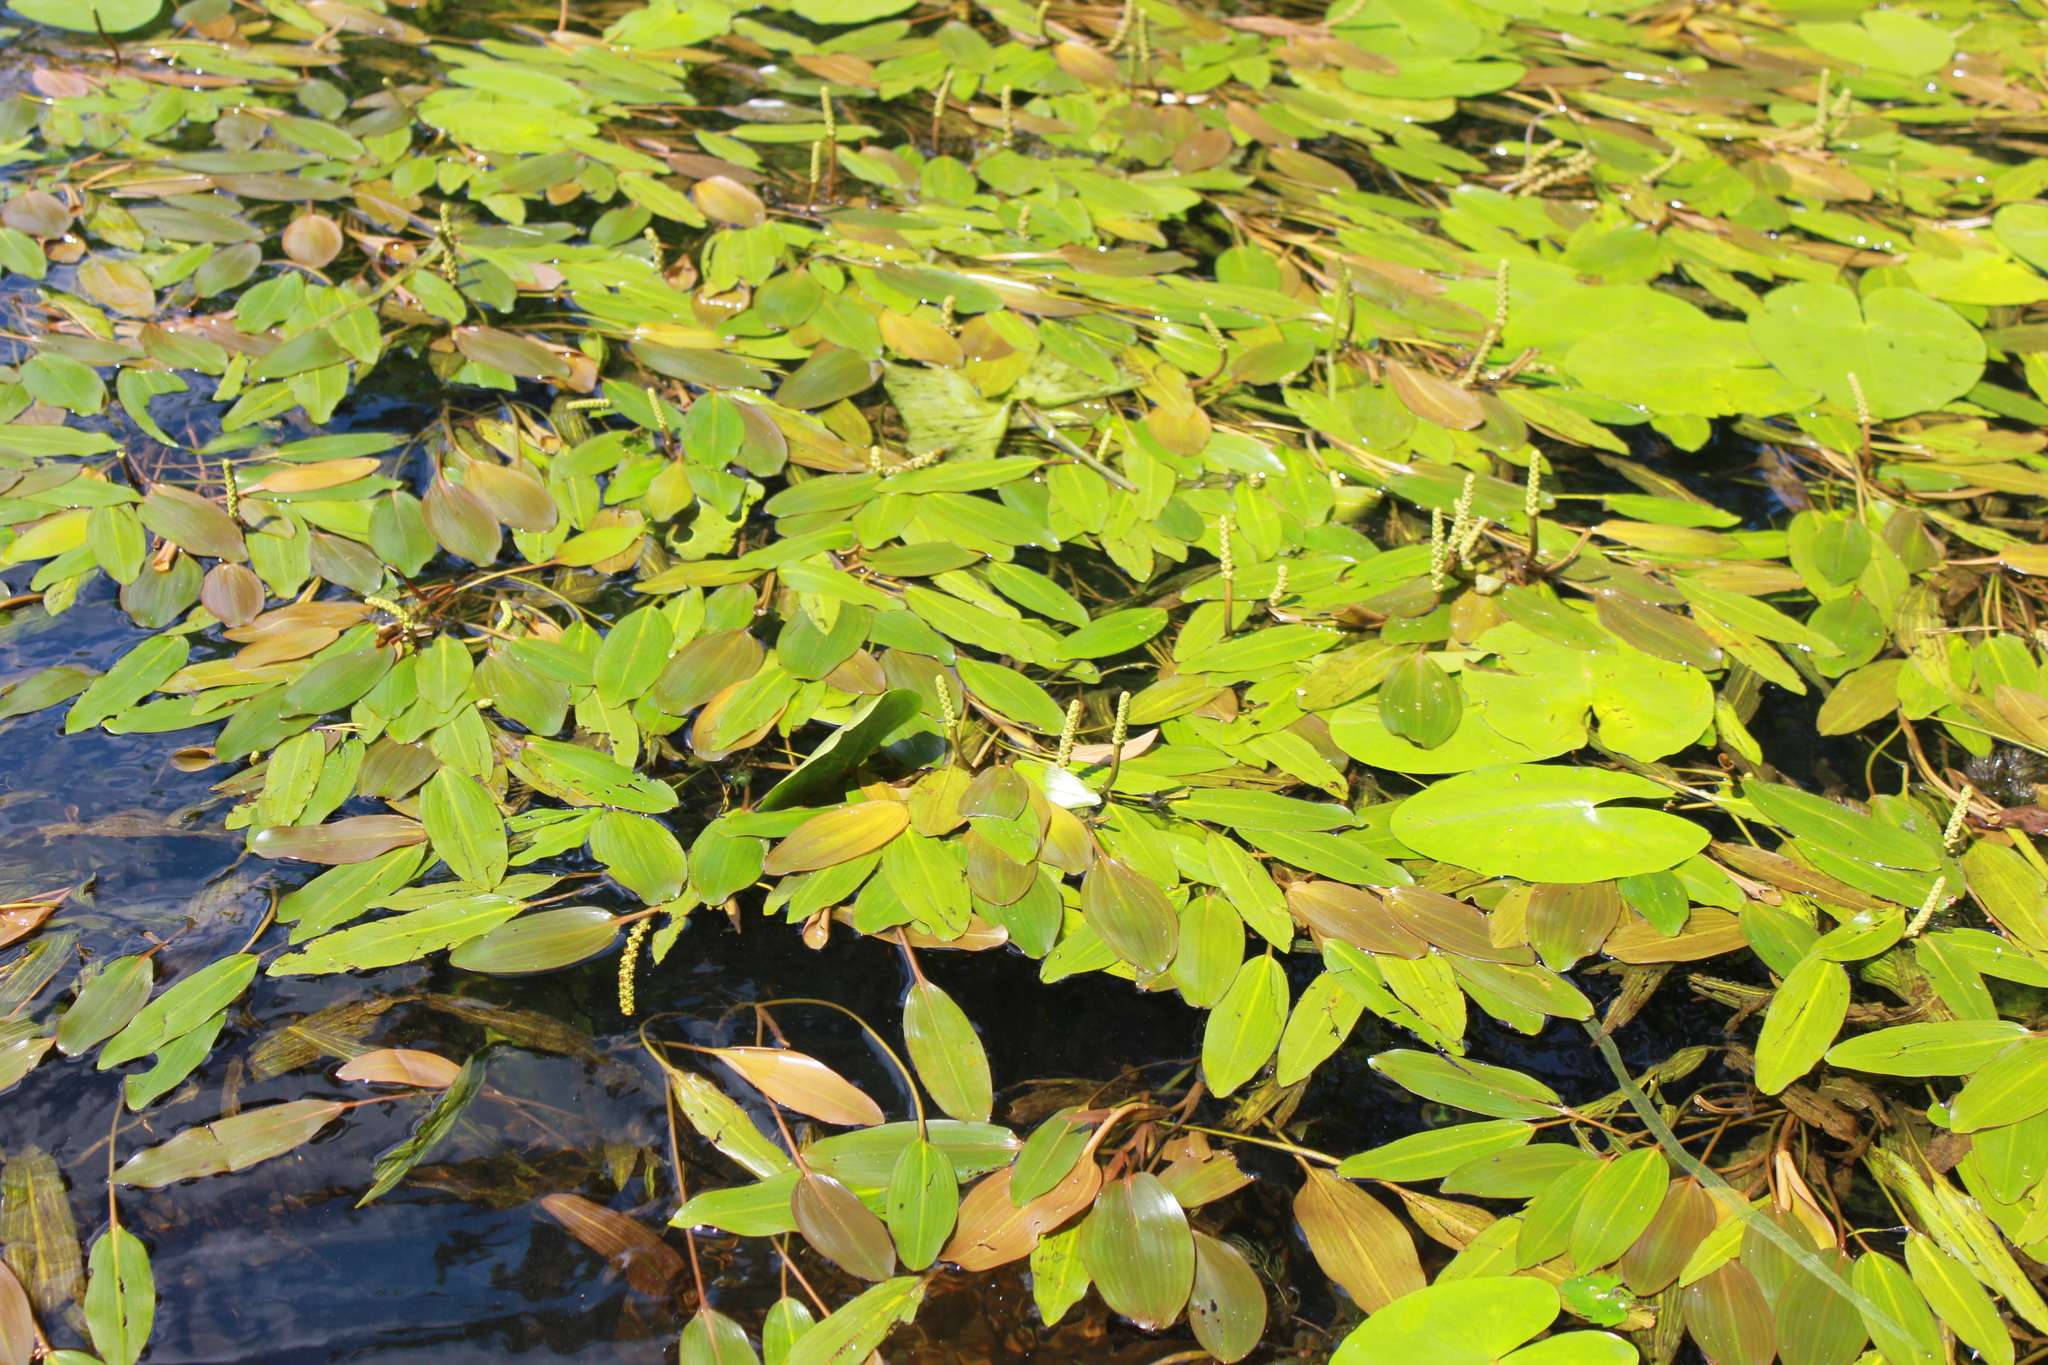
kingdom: Plantae
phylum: Tracheophyta
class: Liliopsida
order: Alismatales
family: Potamogetonaceae
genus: Potamogeton
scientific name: Potamogeton nodosus
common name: Loddon pondweed
